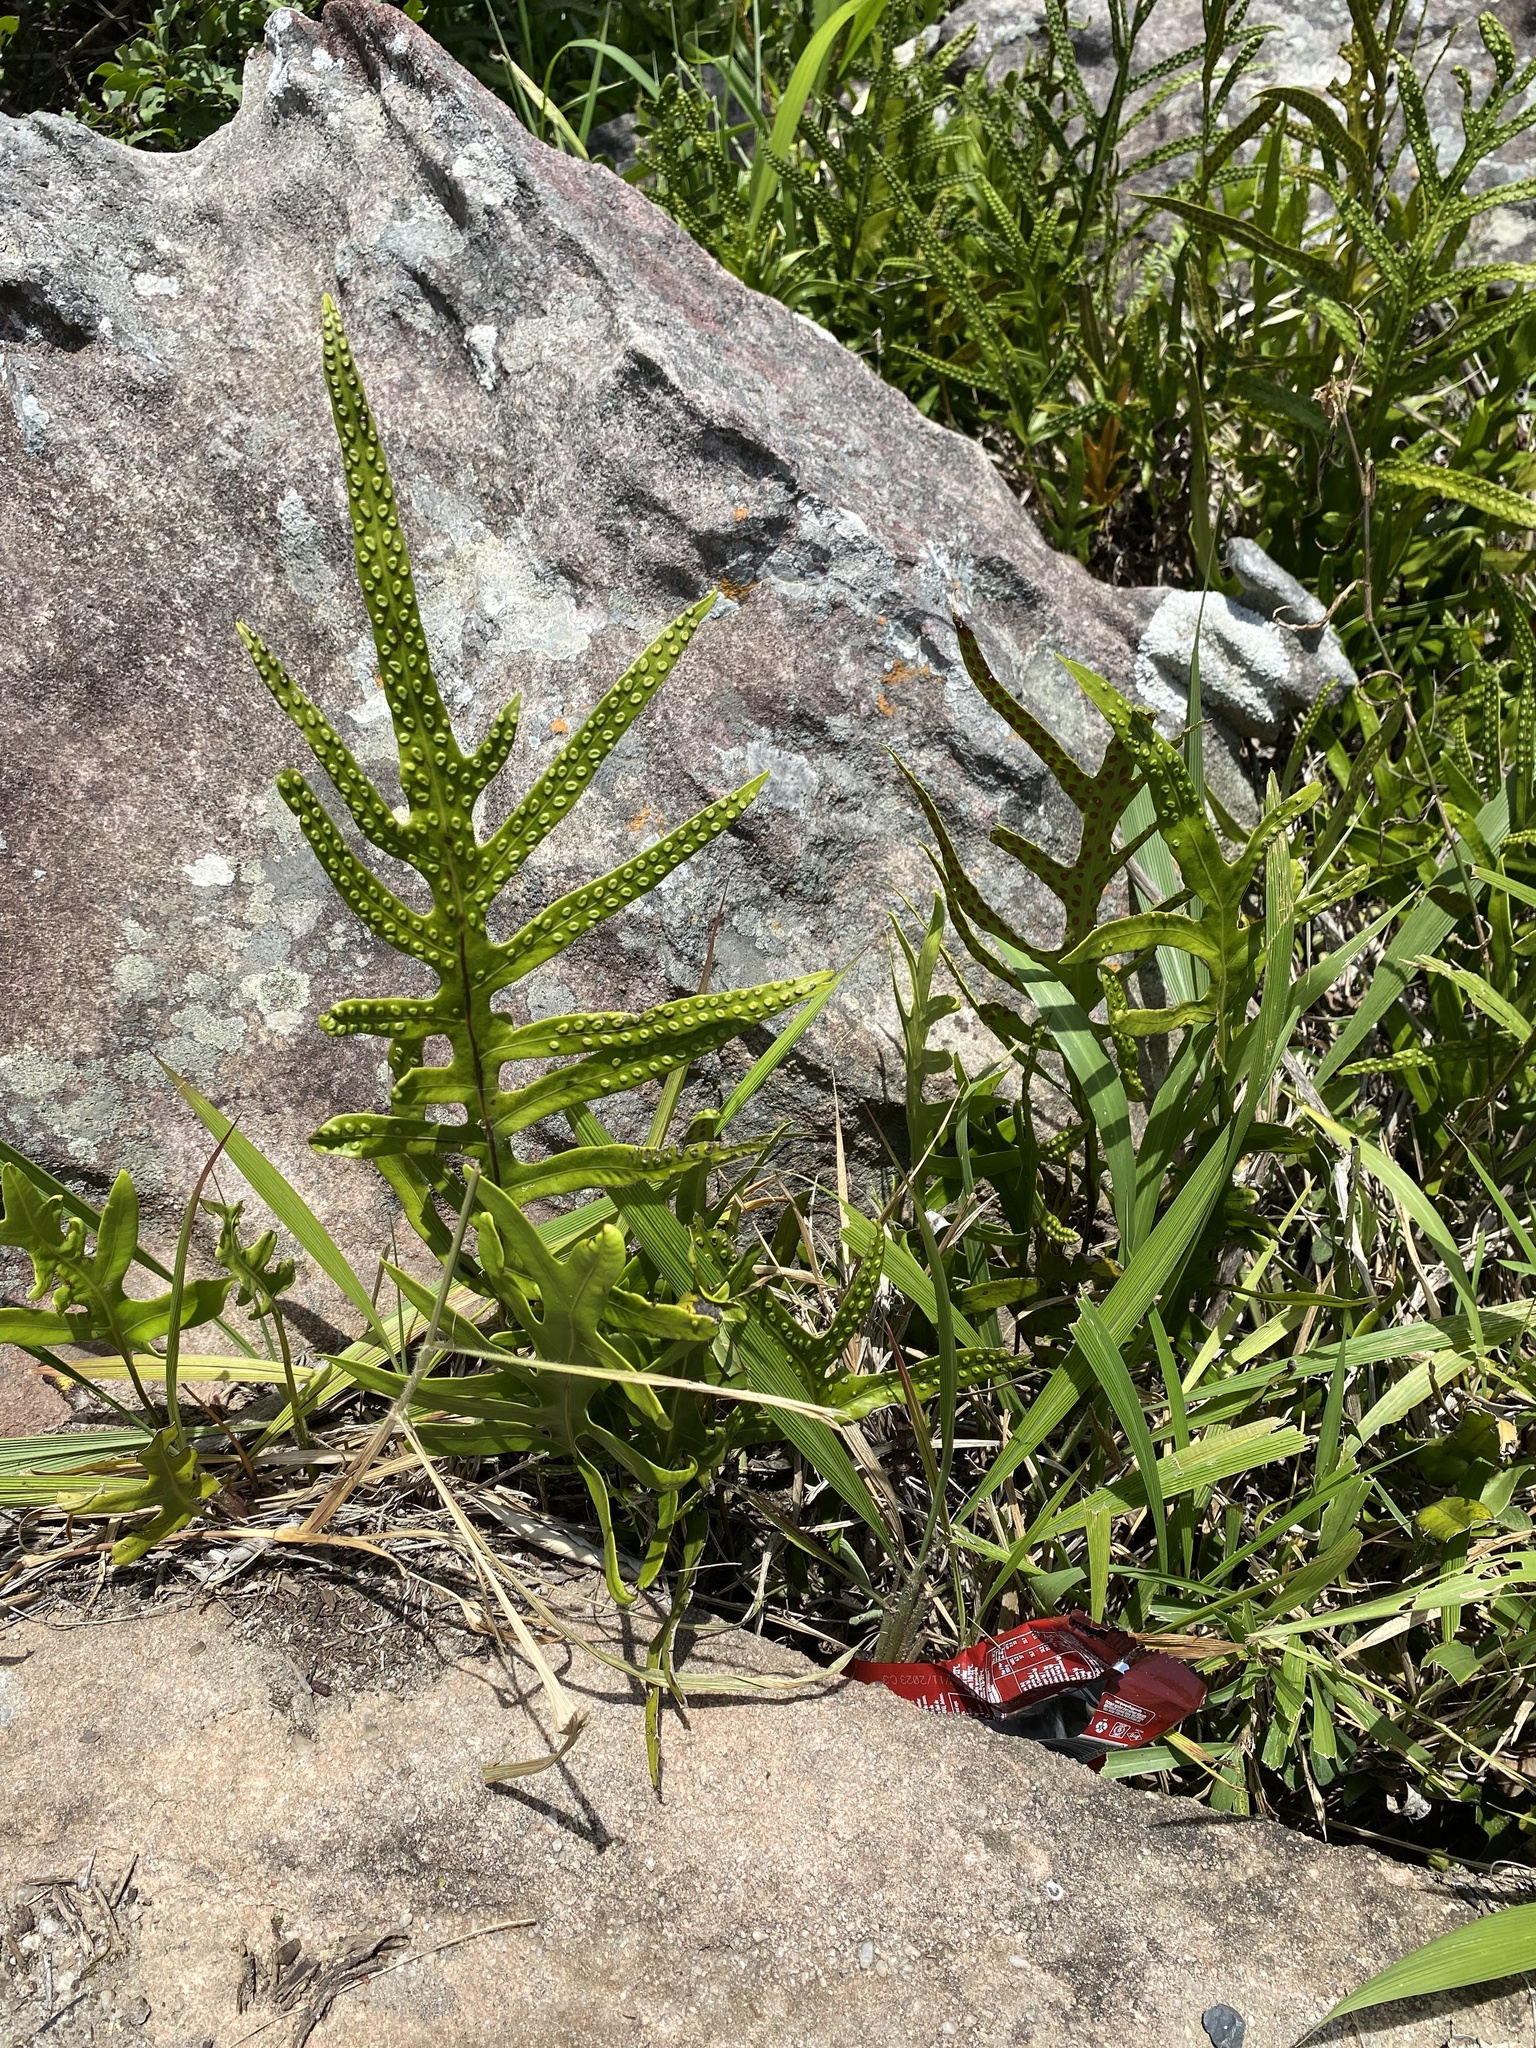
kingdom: Plantae
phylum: Tracheophyta
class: Polypodiopsida
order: Polypodiales
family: Polypodiaceae
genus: Microsorum
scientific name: Microsorum scolopendria
